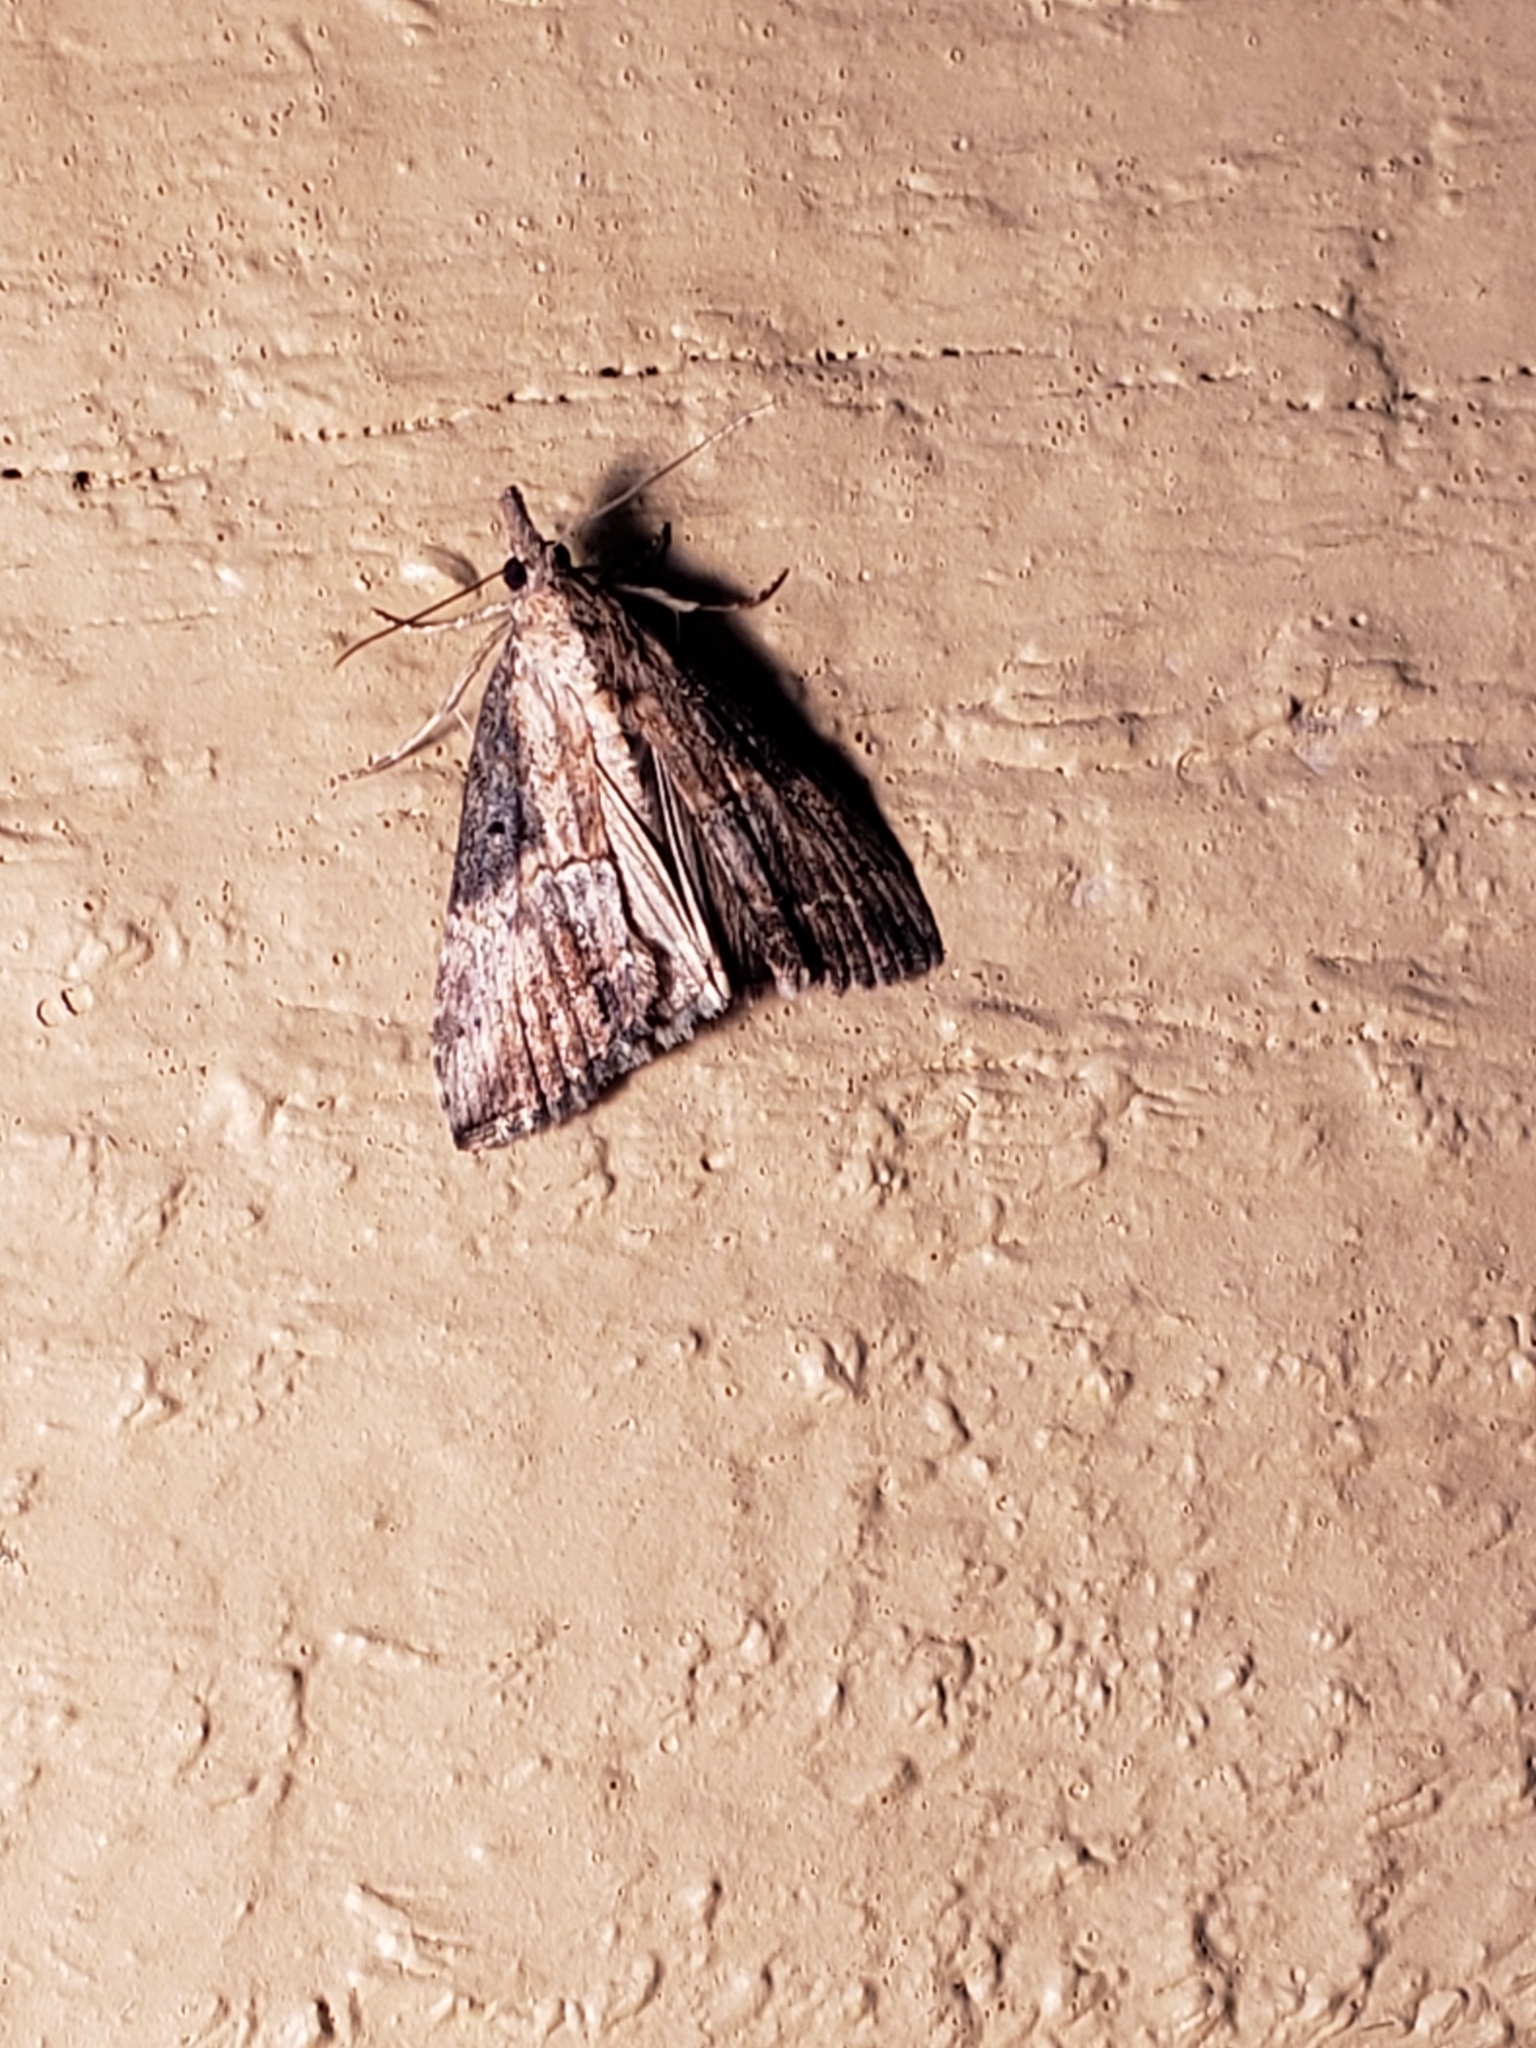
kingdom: Animalia
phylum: Arthropoda
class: Insecta
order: Lepidoptera
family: Erebidae
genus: Hypena
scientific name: Hypena scabra
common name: Green cloverworm
